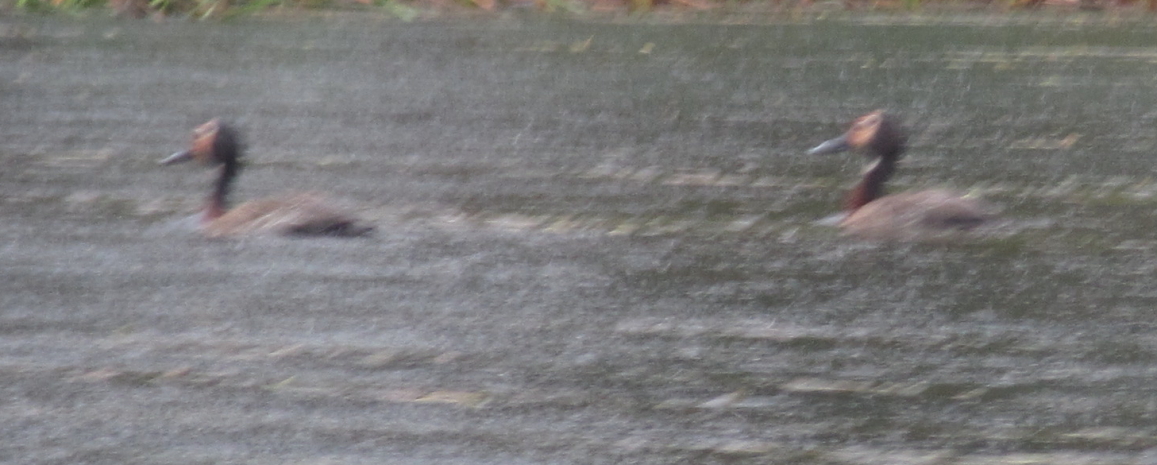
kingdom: Animalia
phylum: Chordata
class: Aves
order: Anseriformes
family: Anatidae
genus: Dendrocygna
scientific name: Dendrocygna viduata
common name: White-faced whistling duck
